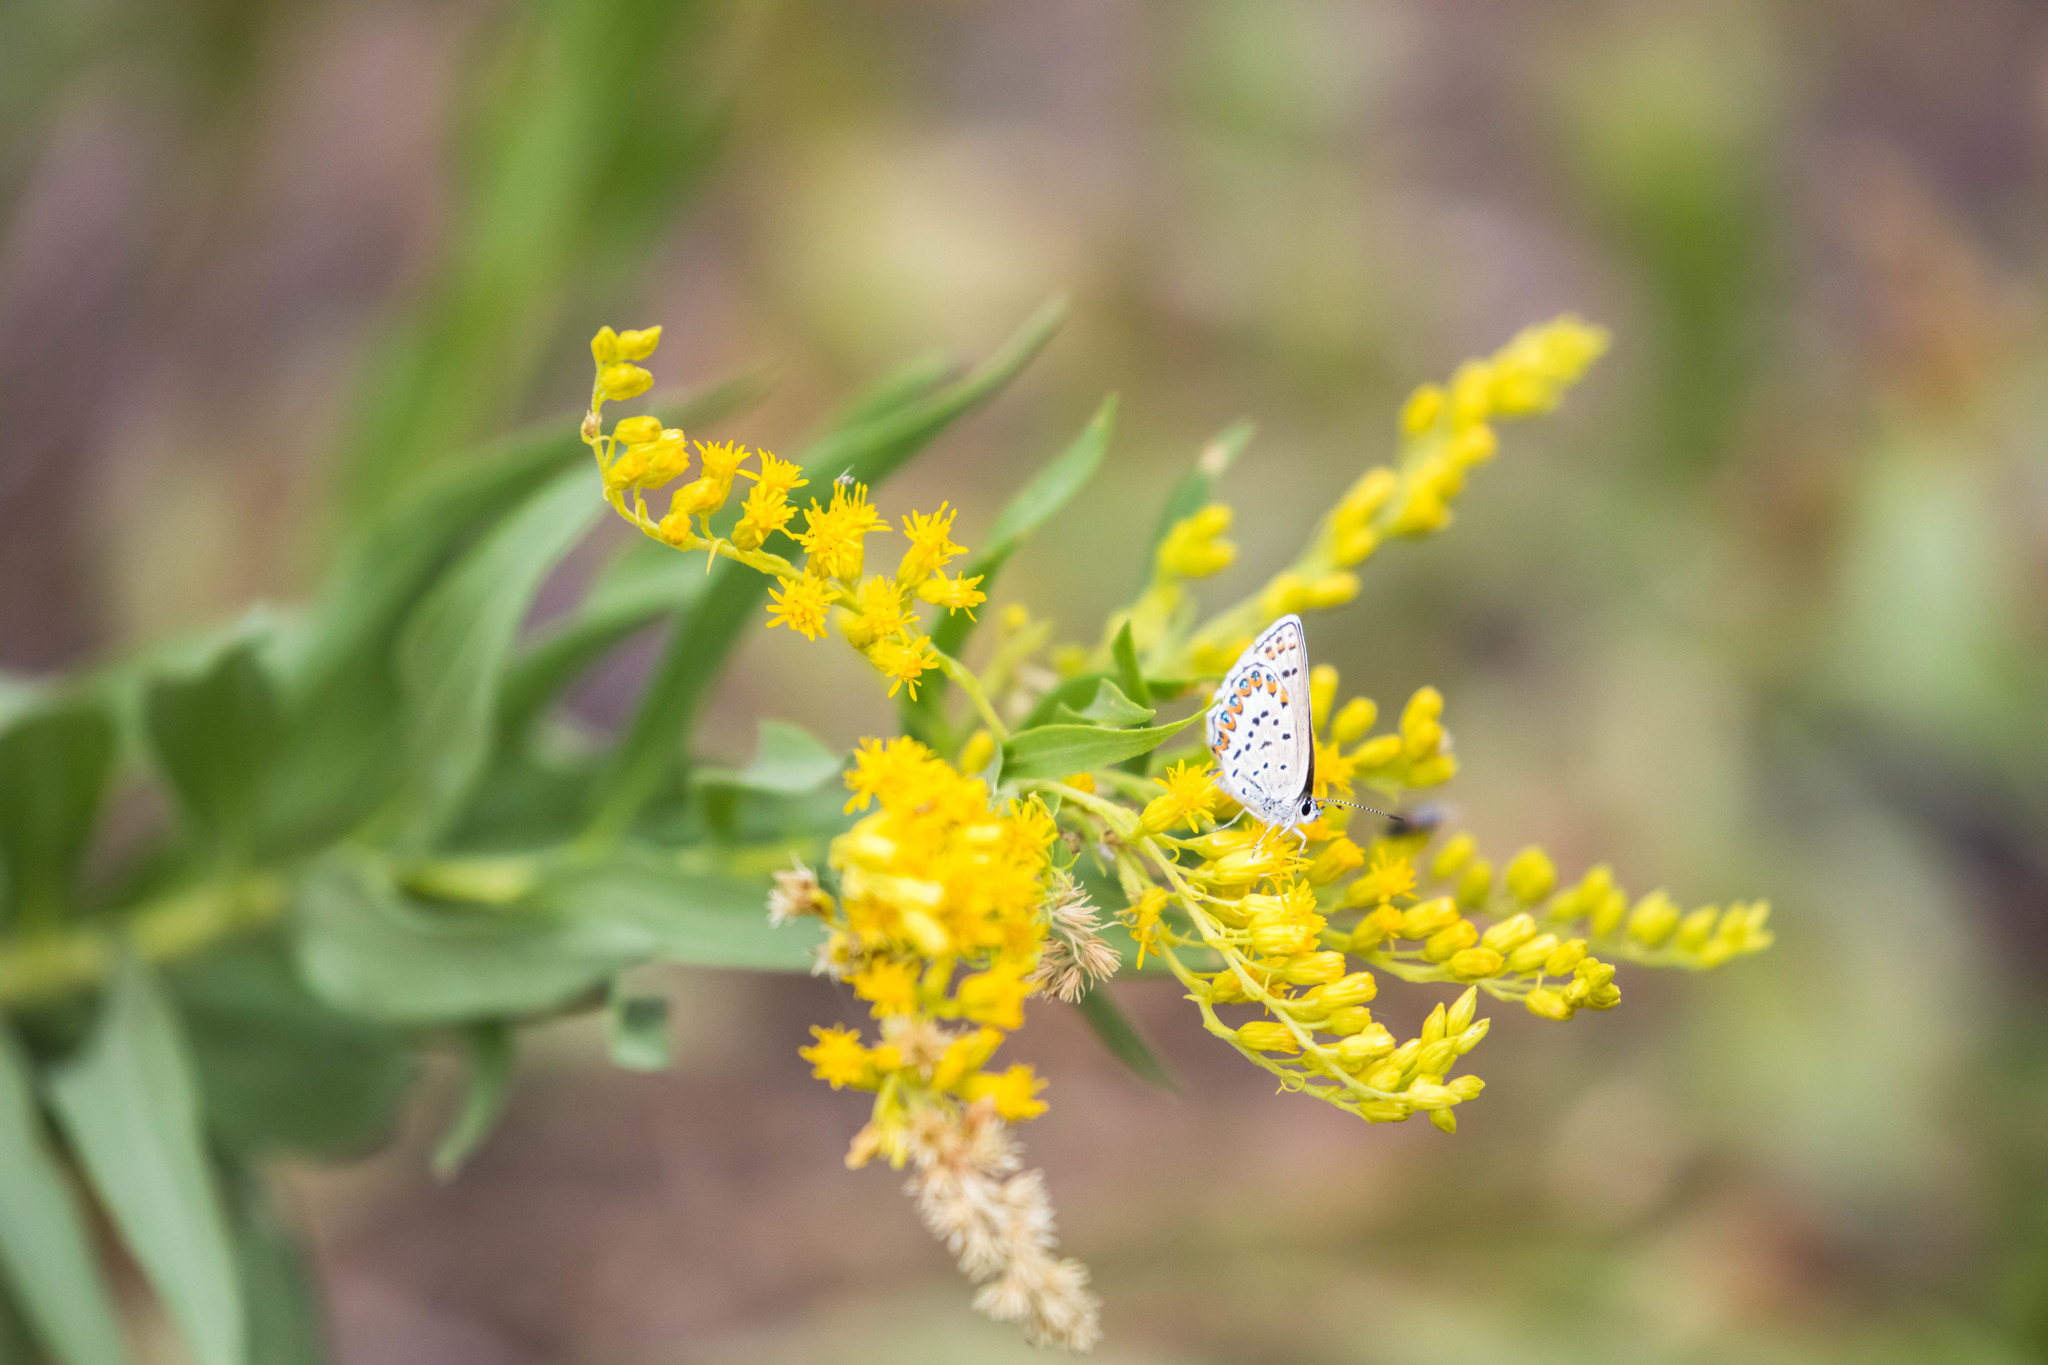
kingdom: Animalia
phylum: Arthropoda
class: Insecta
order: Lepidoptera
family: Lycaenidae
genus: Lycaeides
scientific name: Lycaeides melissa
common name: Melissa blue
